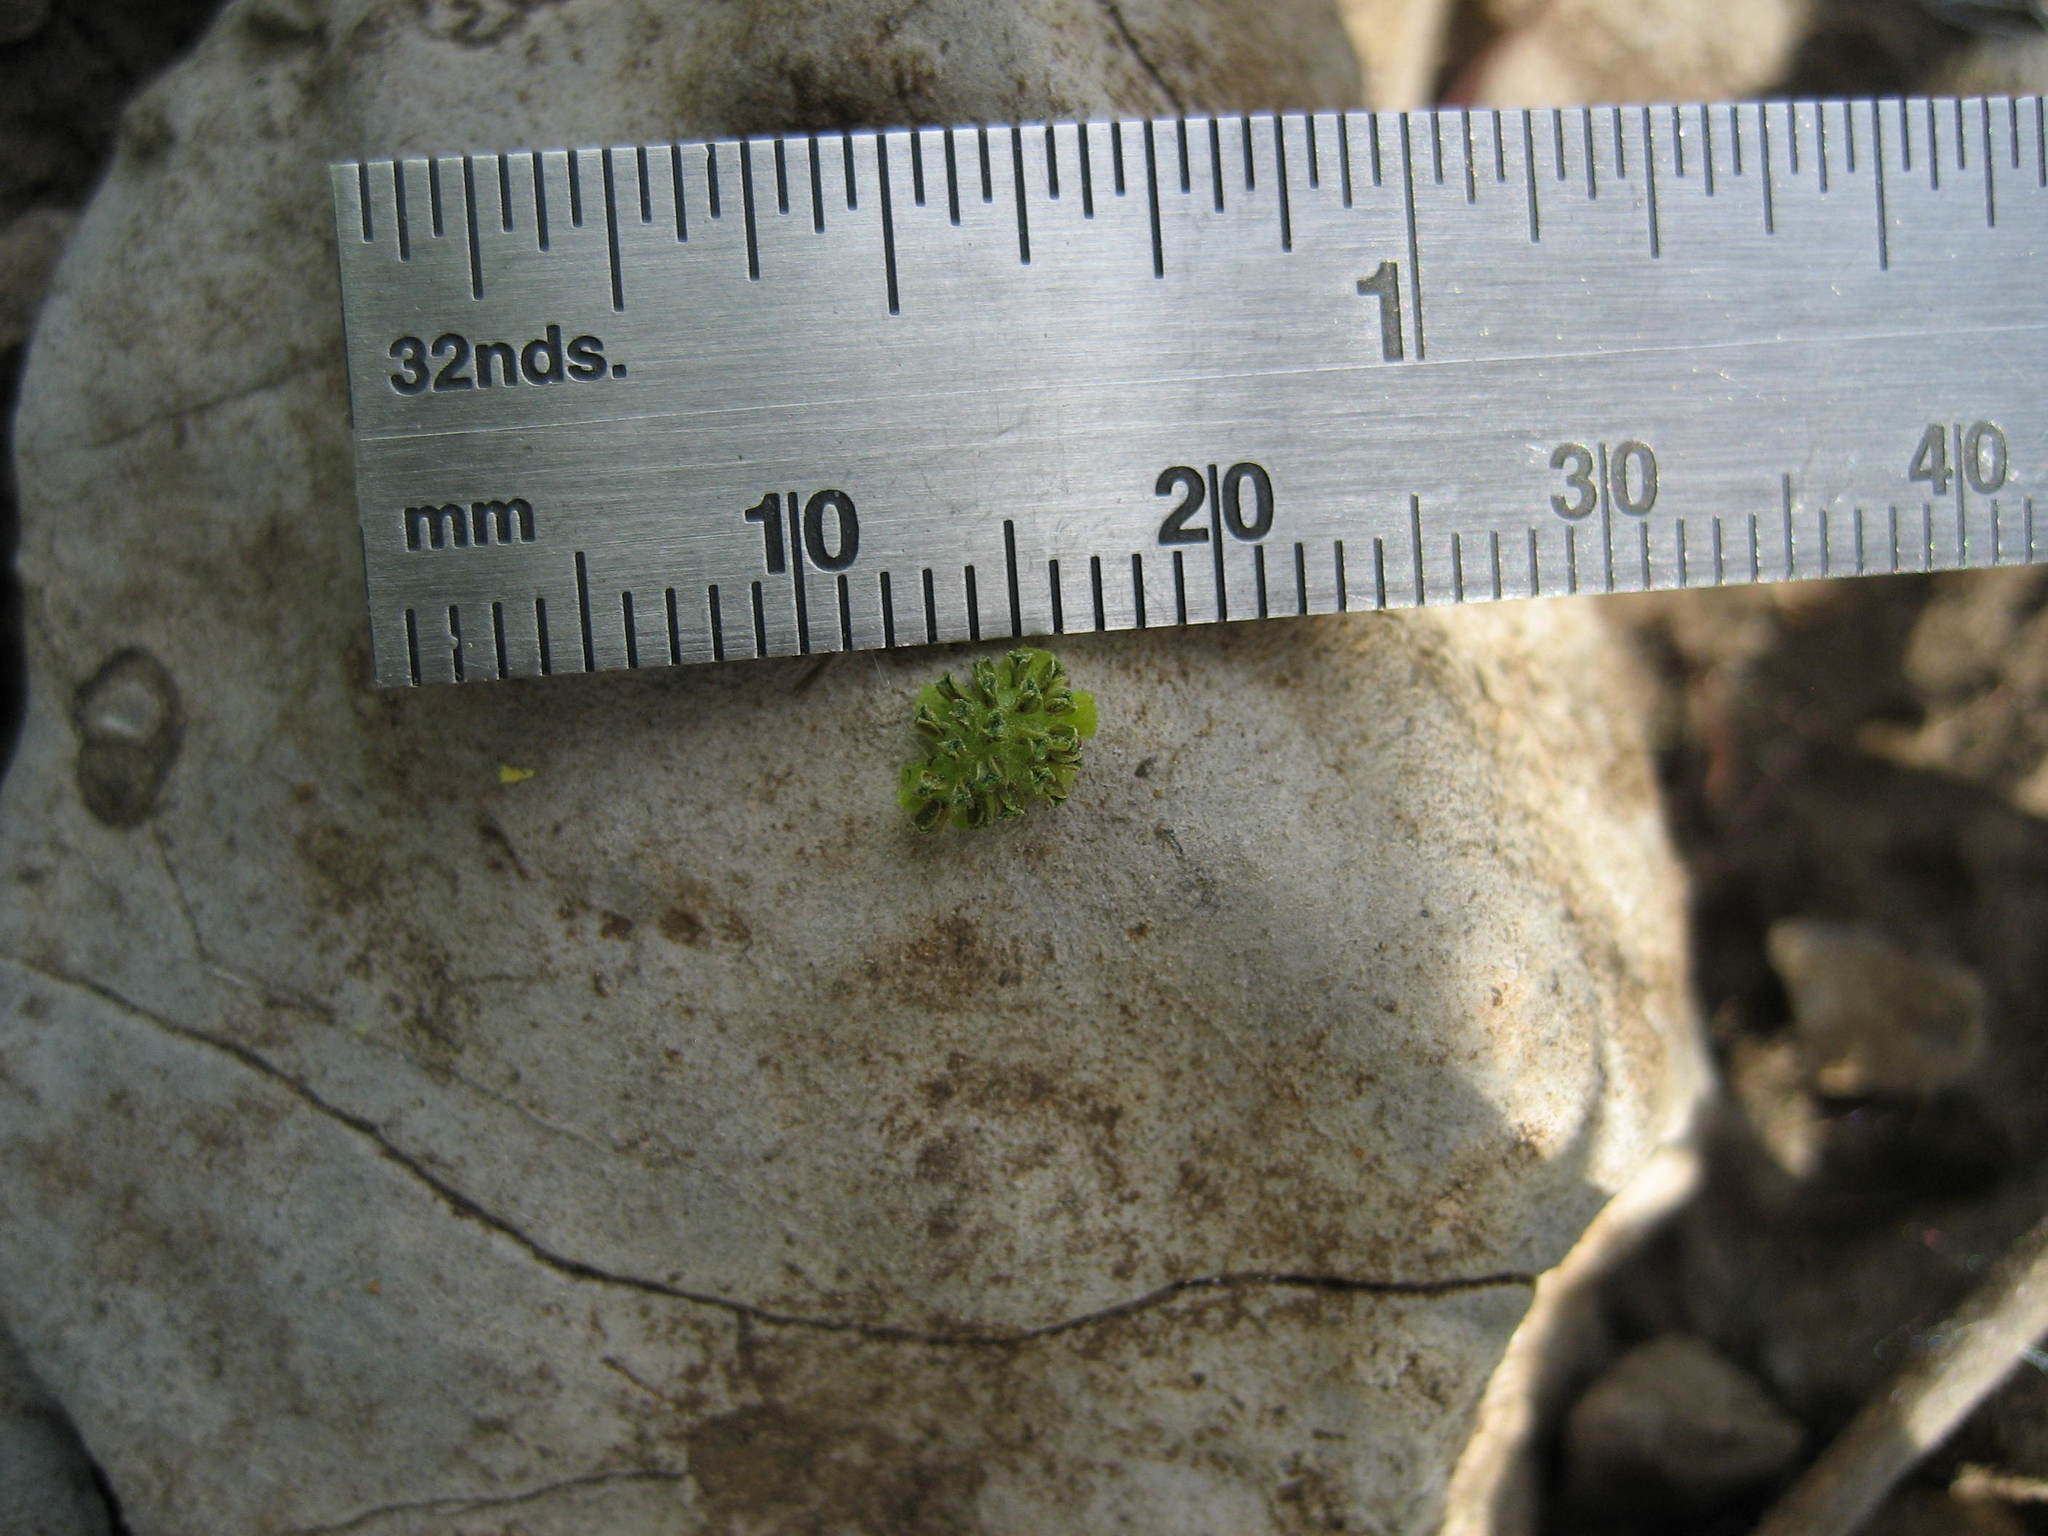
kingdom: Plantae
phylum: Tracheophyta
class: Magnoliopsida
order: Fagales
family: Juglandaceae
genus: Juglans
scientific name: Juglans nigra
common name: Black walnut
